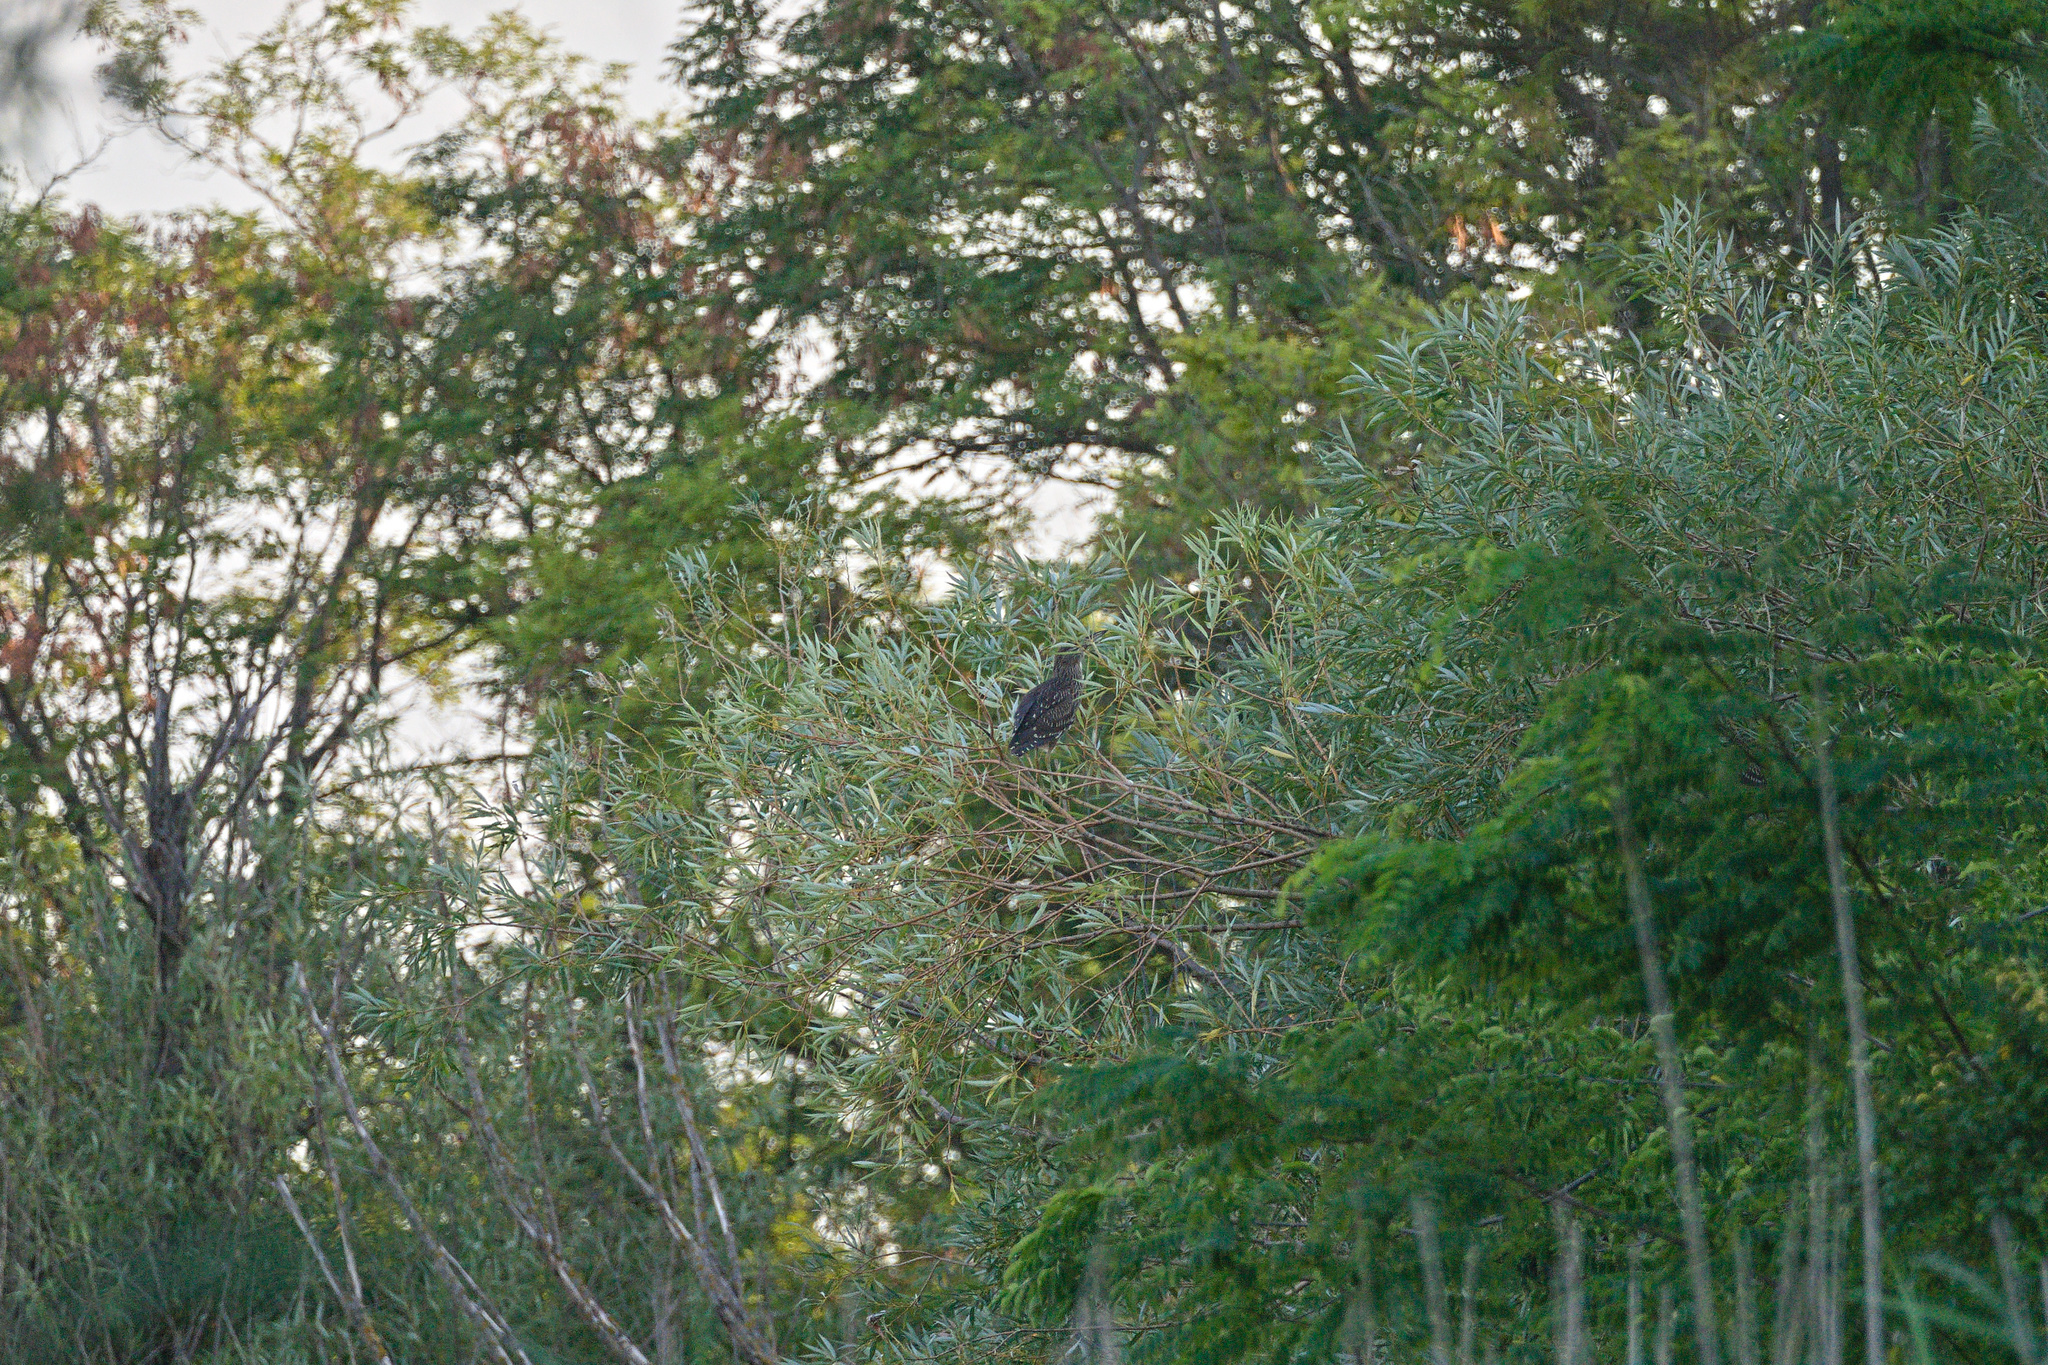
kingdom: Animalia
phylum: Chordata
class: Aves
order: Pelecaniformes
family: Ardeidae
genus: Nycticorax
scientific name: Nycticorax nycticorax
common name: Black-crowned night heron
